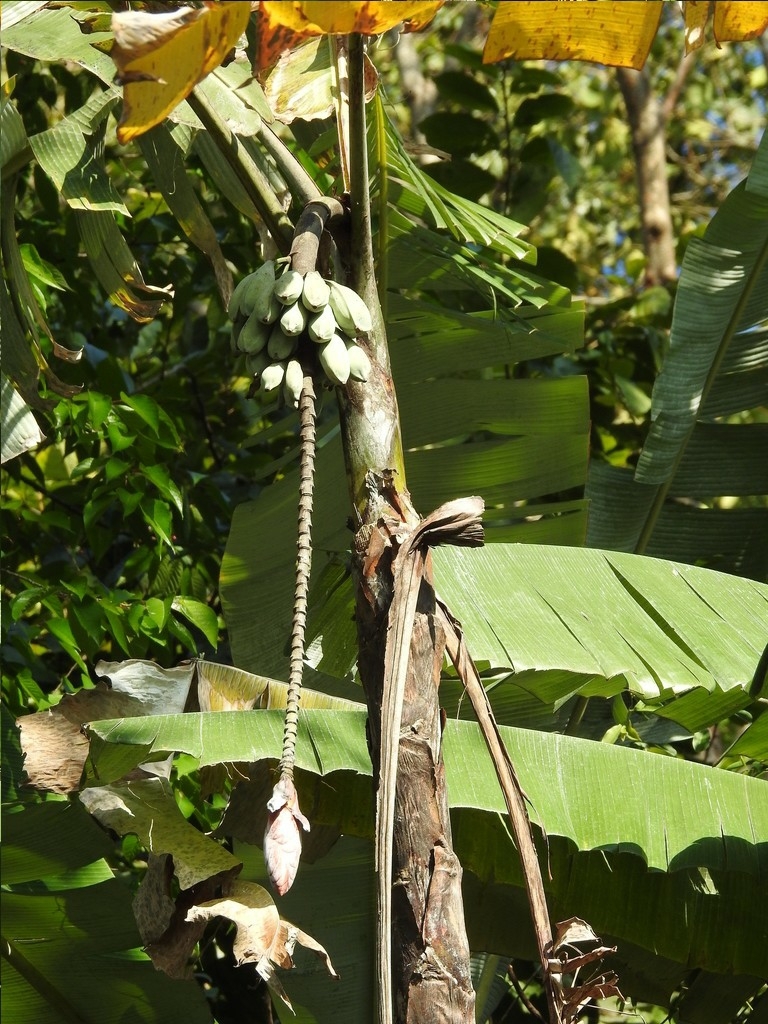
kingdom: Plantae
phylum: Tracheophyta
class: Liliopsida
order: Zingiberales
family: Musaceae
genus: Musa
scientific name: Musa nagensium
